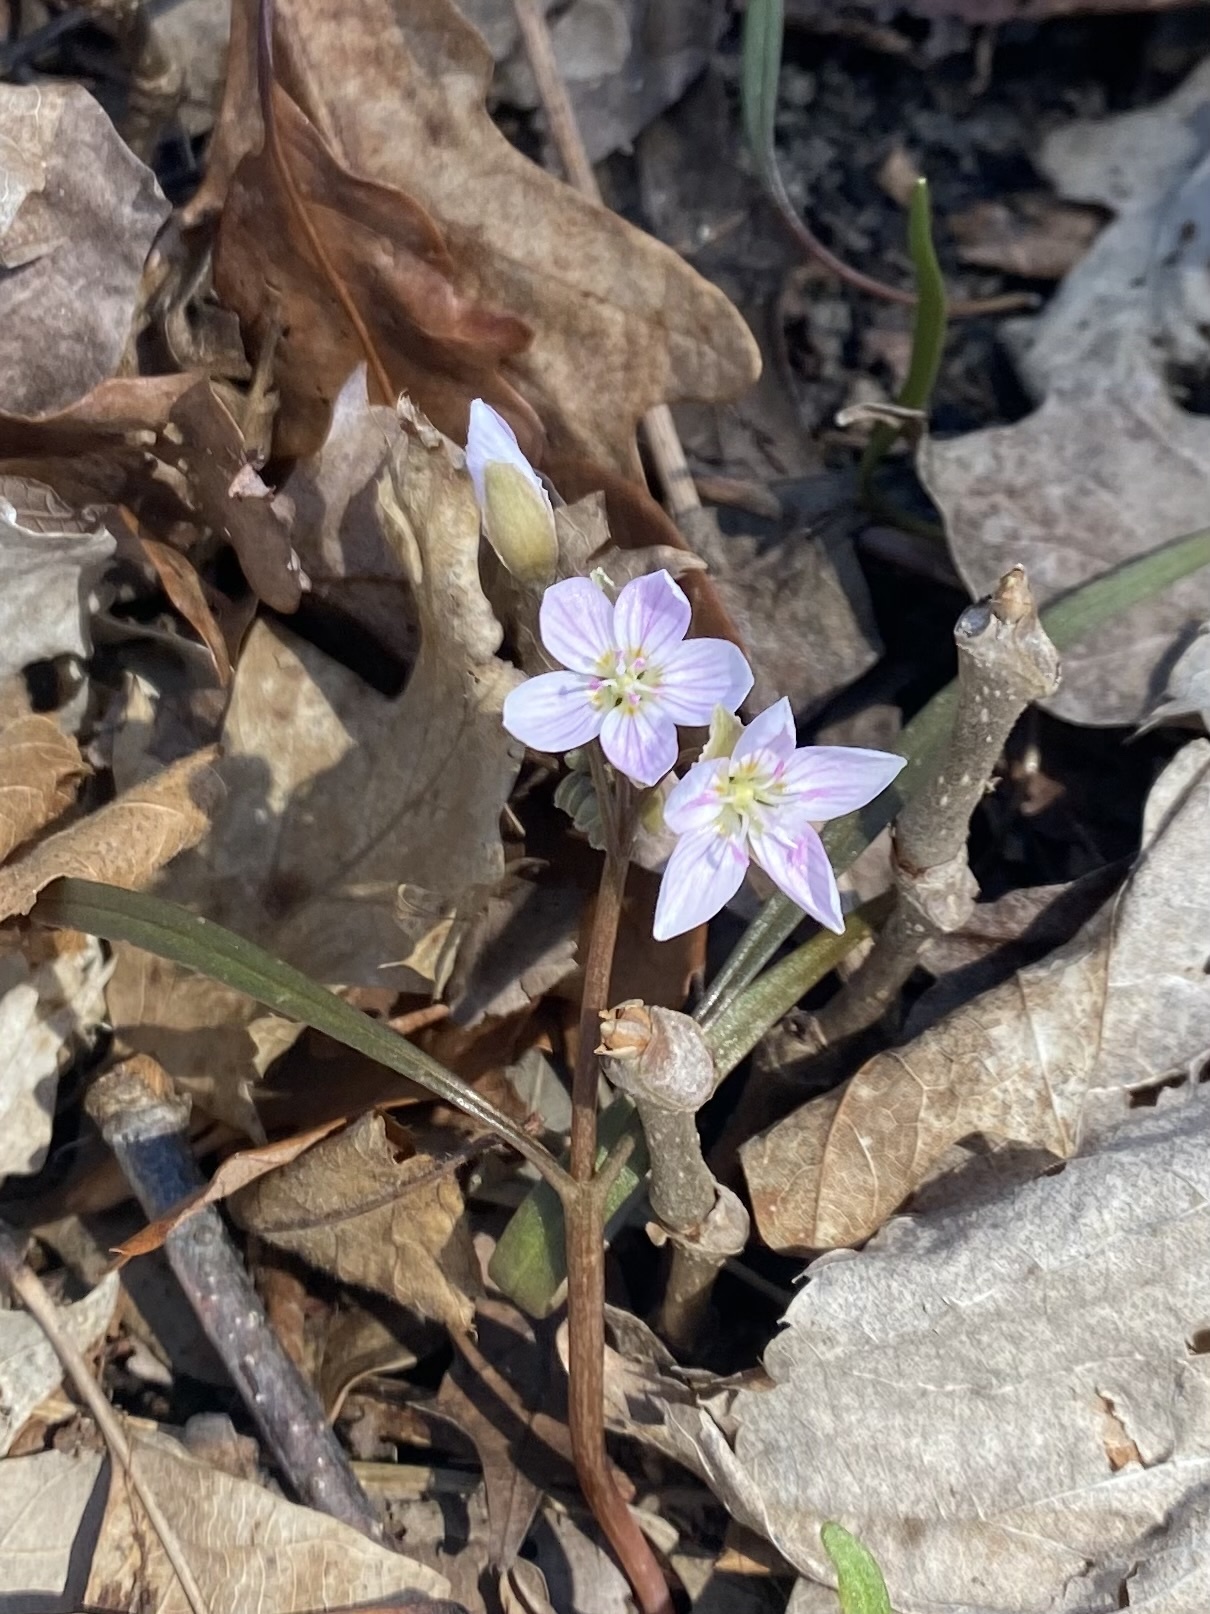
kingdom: Plantae
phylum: Tracheophyta
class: Magnoliopsida
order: Caryophyllales
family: Montiaceae
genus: Claytonia
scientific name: Claytonia virginica
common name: Virginia springbeauty
